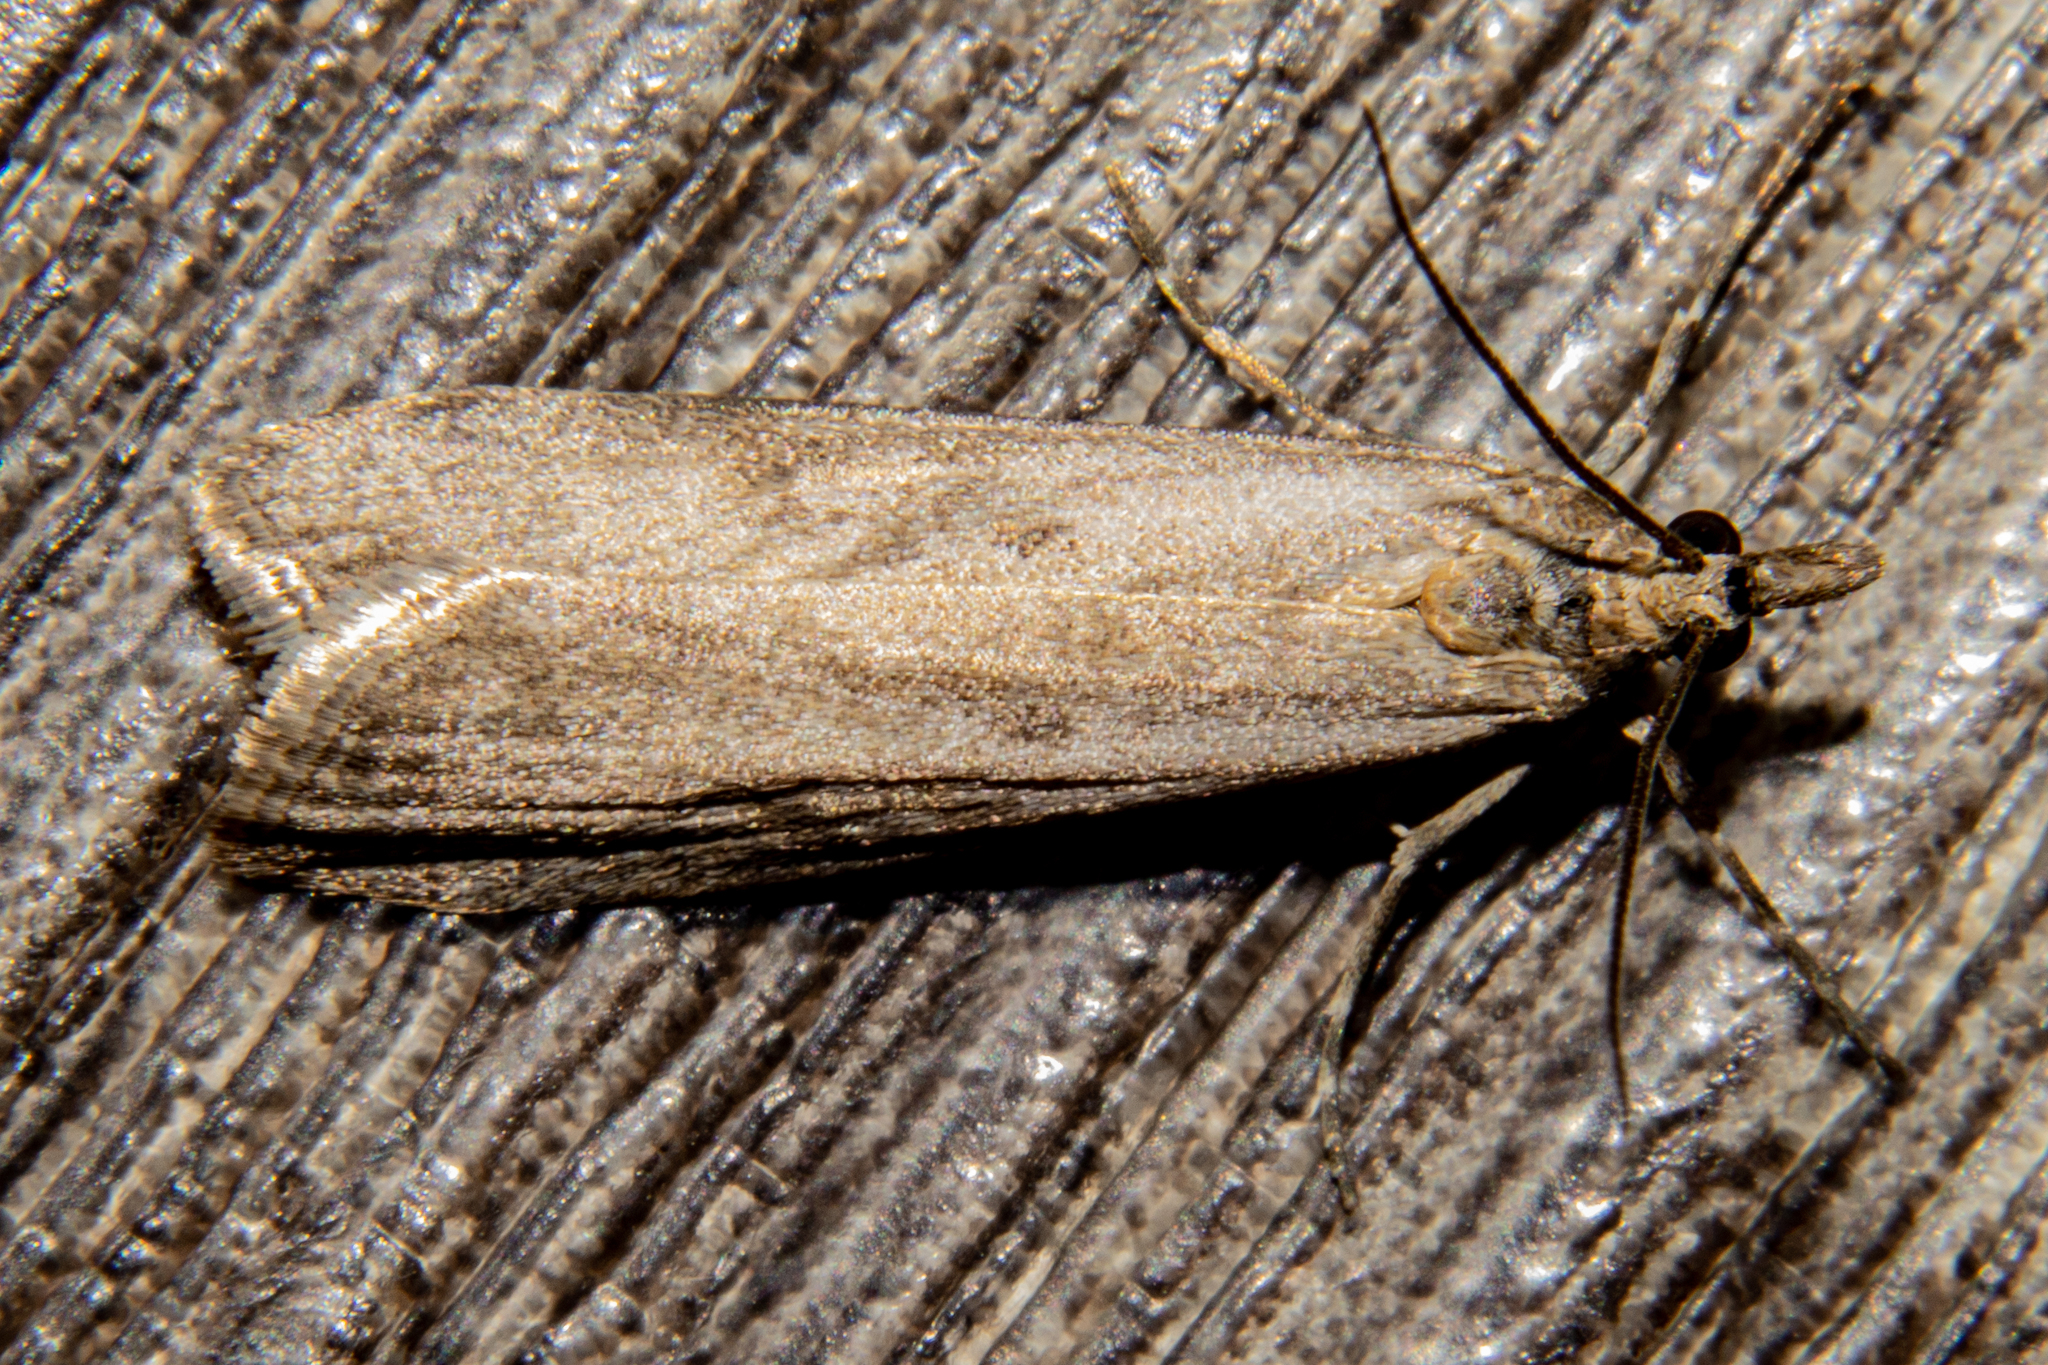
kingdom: Animalia
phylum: Arthropoda
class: Insecta
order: Lepidoptera
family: Crambidae
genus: Eudonia
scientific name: Eudonia leptalea
